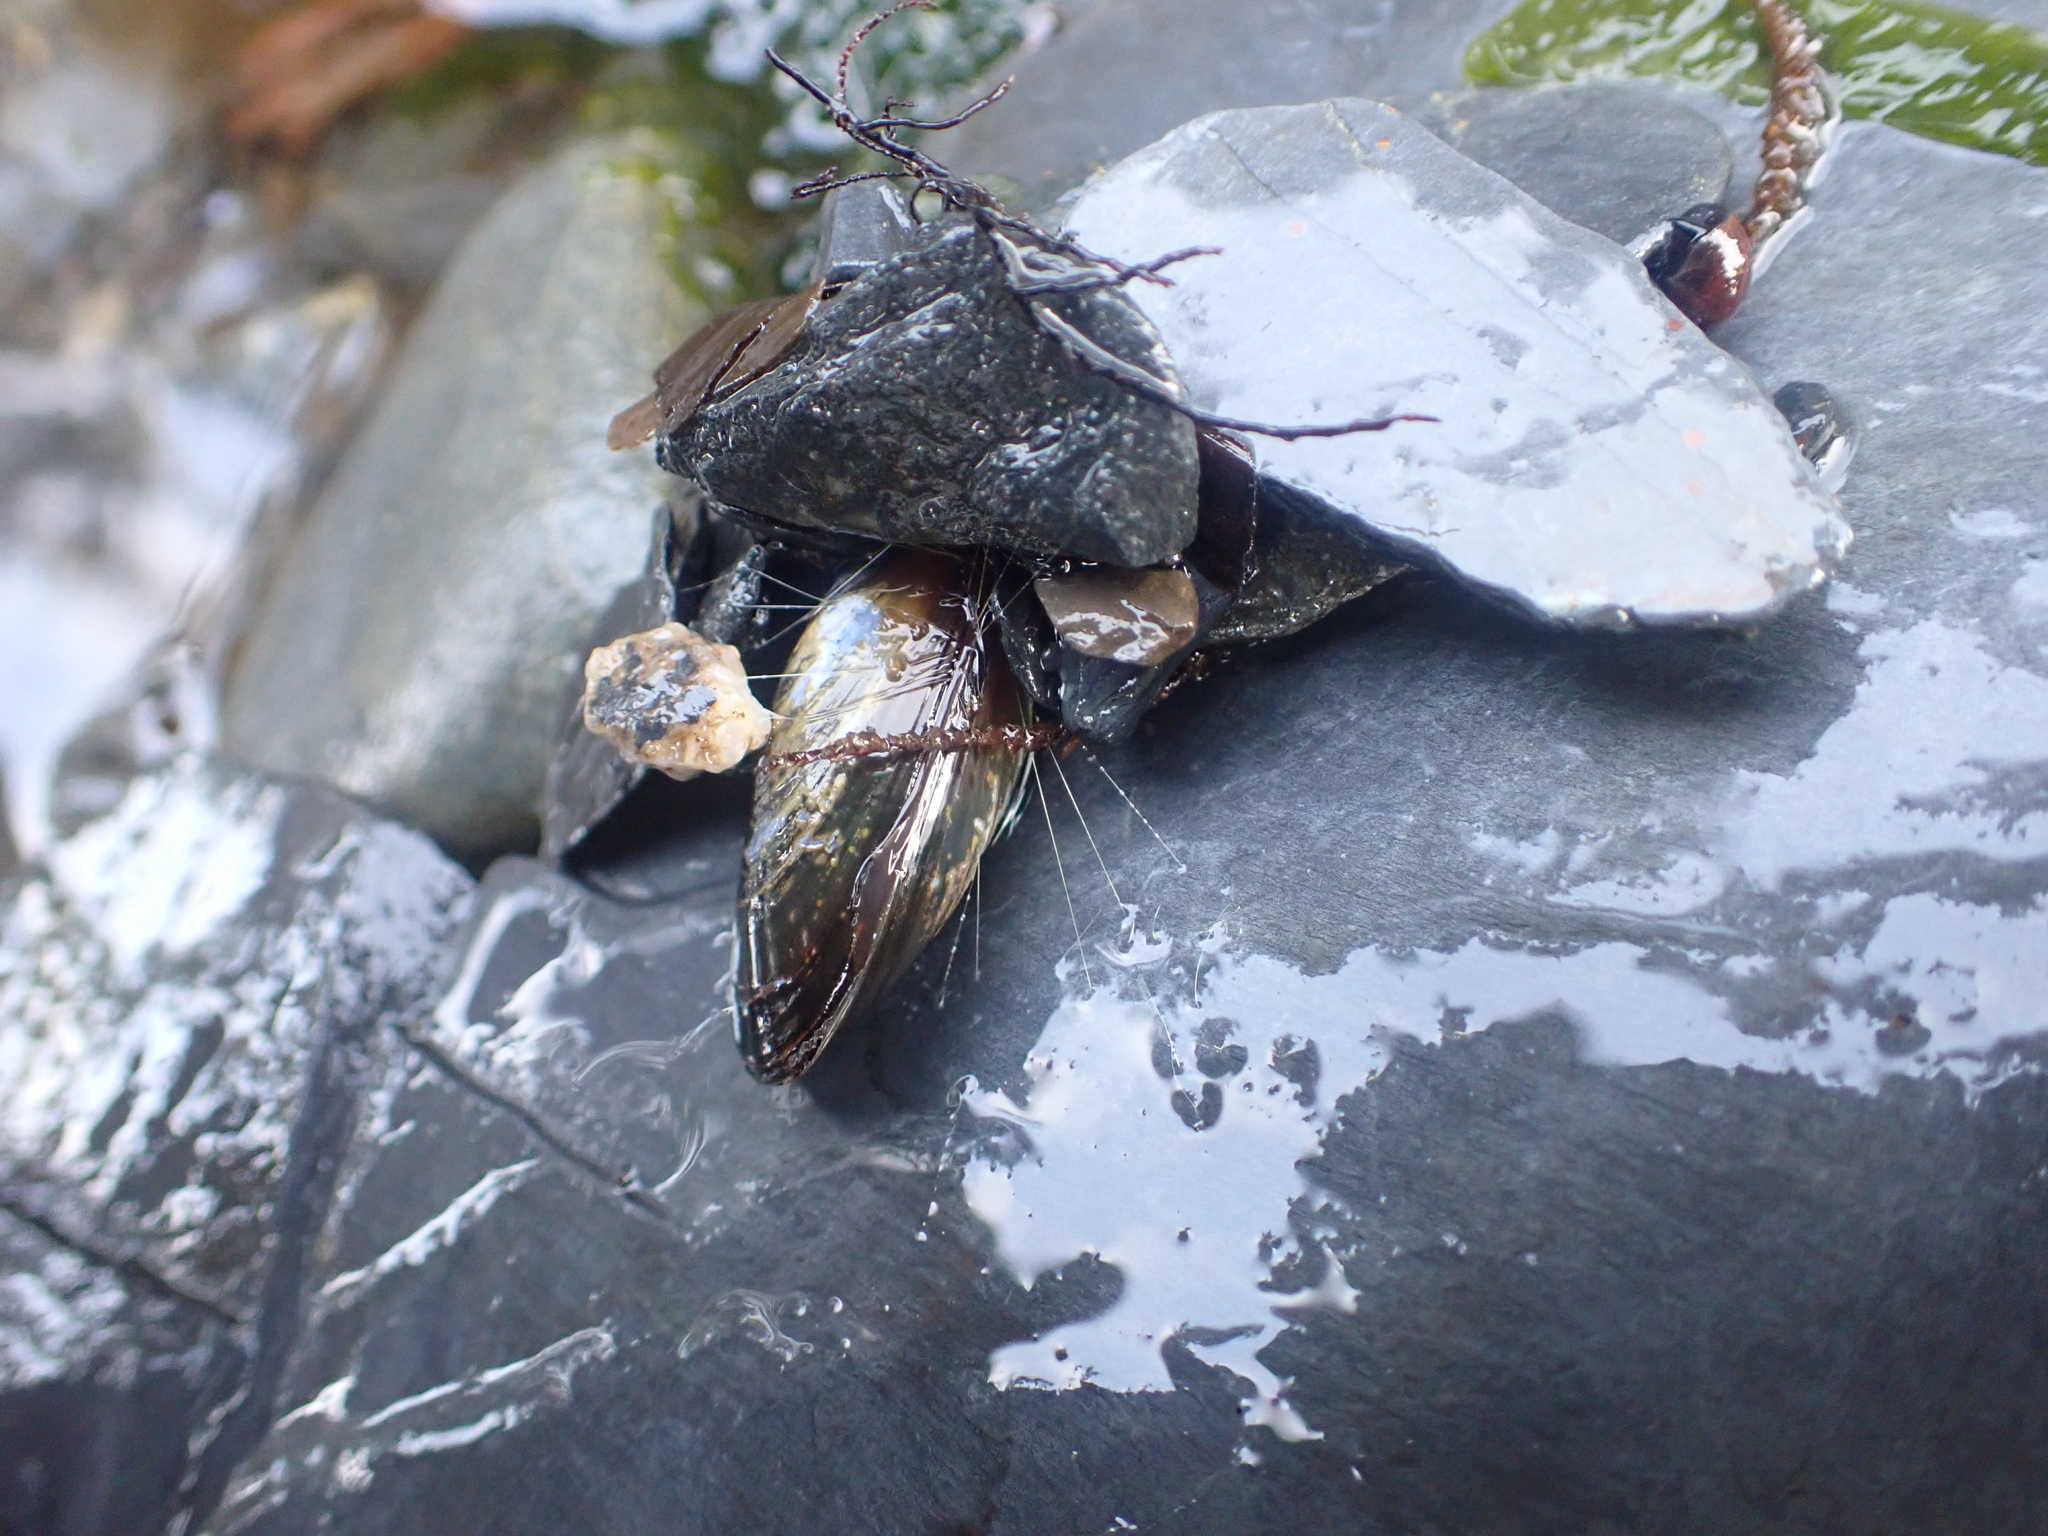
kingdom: Animalia
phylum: Mollusca
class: Bivalvia
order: Mytilida
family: Mytilidae
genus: Mytilus
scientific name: Mytilus trossulus
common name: Northern blue mussel
